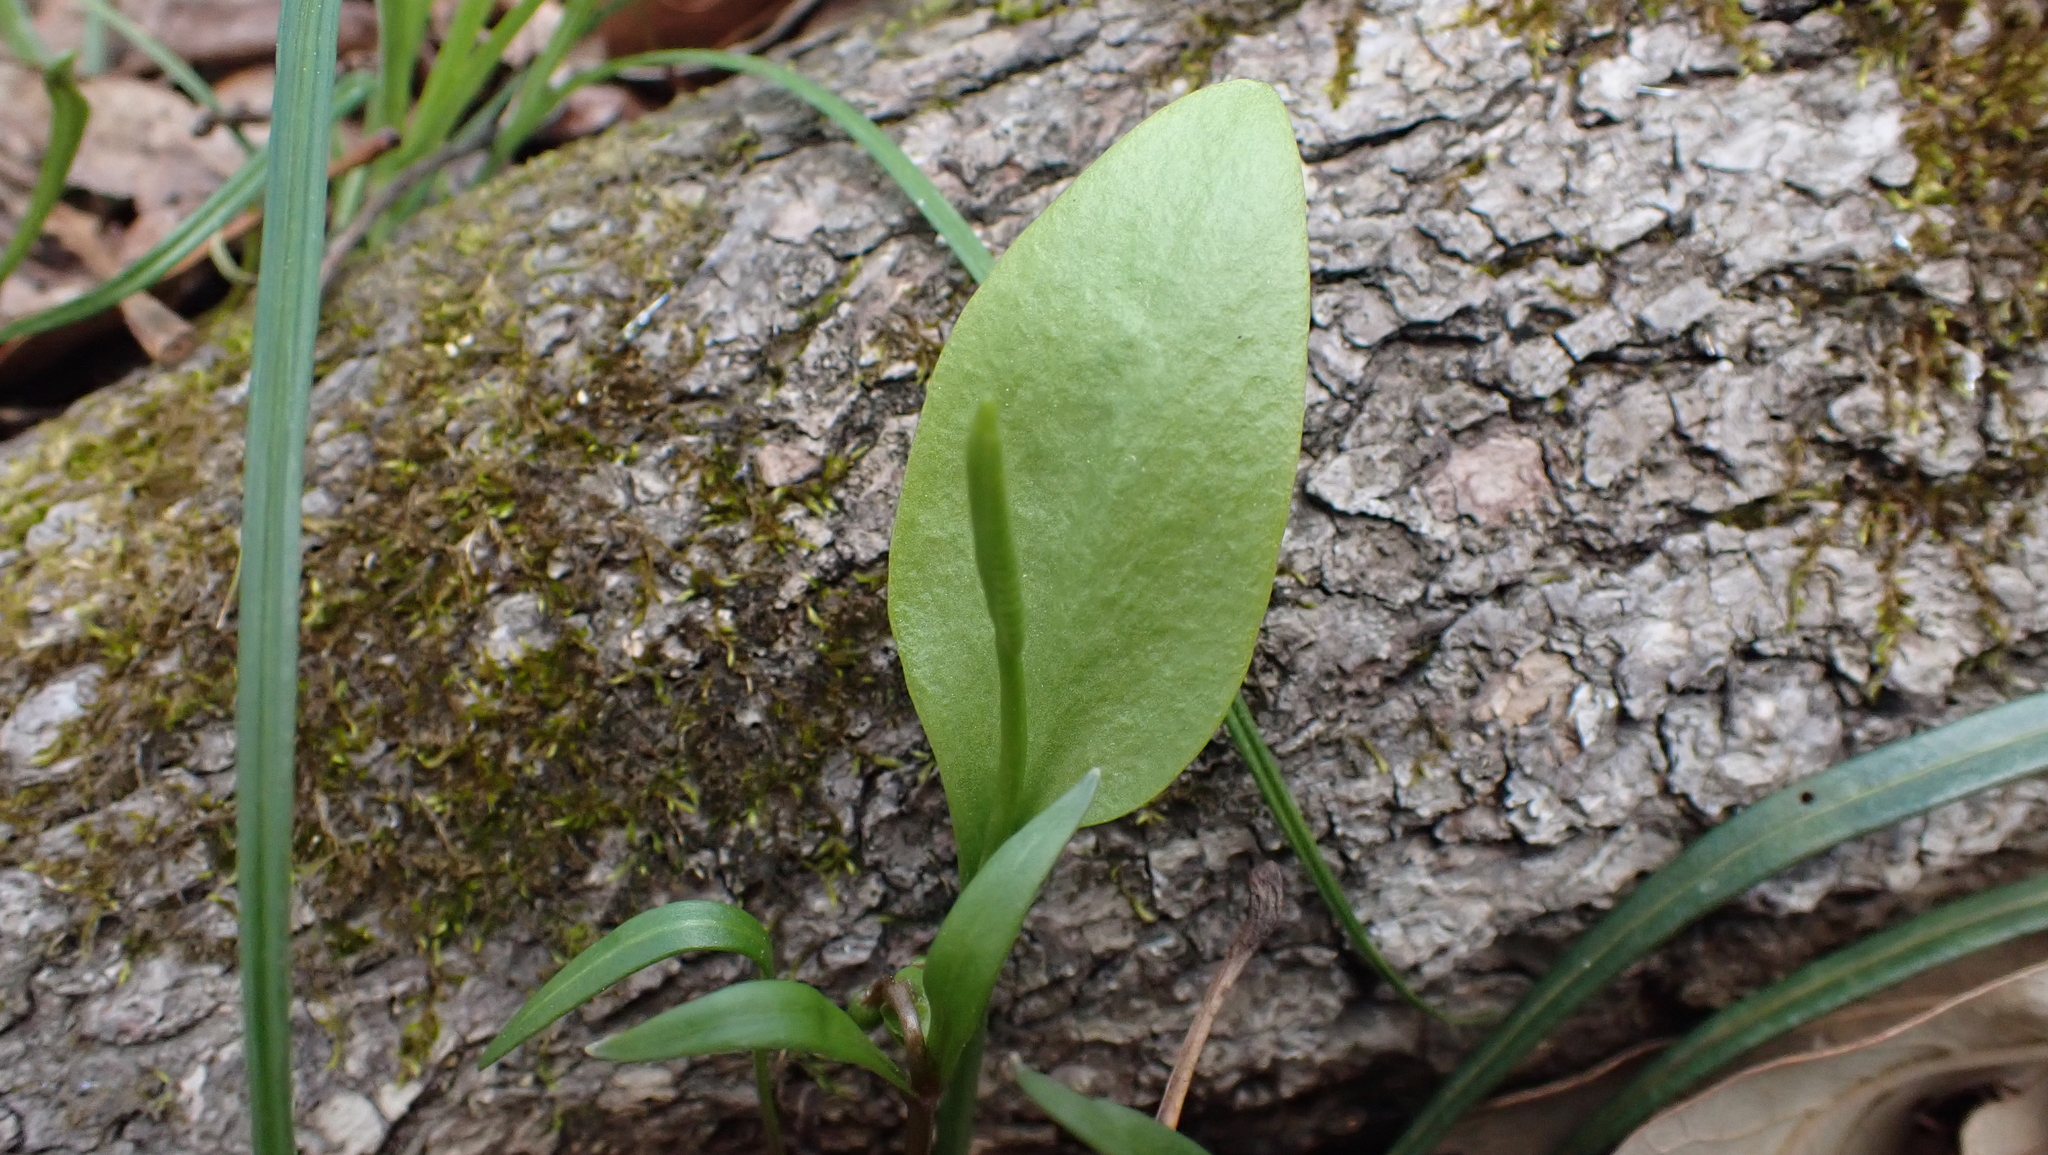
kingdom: Plantae
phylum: Tracheophyta
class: Polypodiopsida
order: Ophioglossales
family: Ophioglossaceae
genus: Ophioglossum
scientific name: Ophioglossum vulgatum
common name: Adder's-tongue
